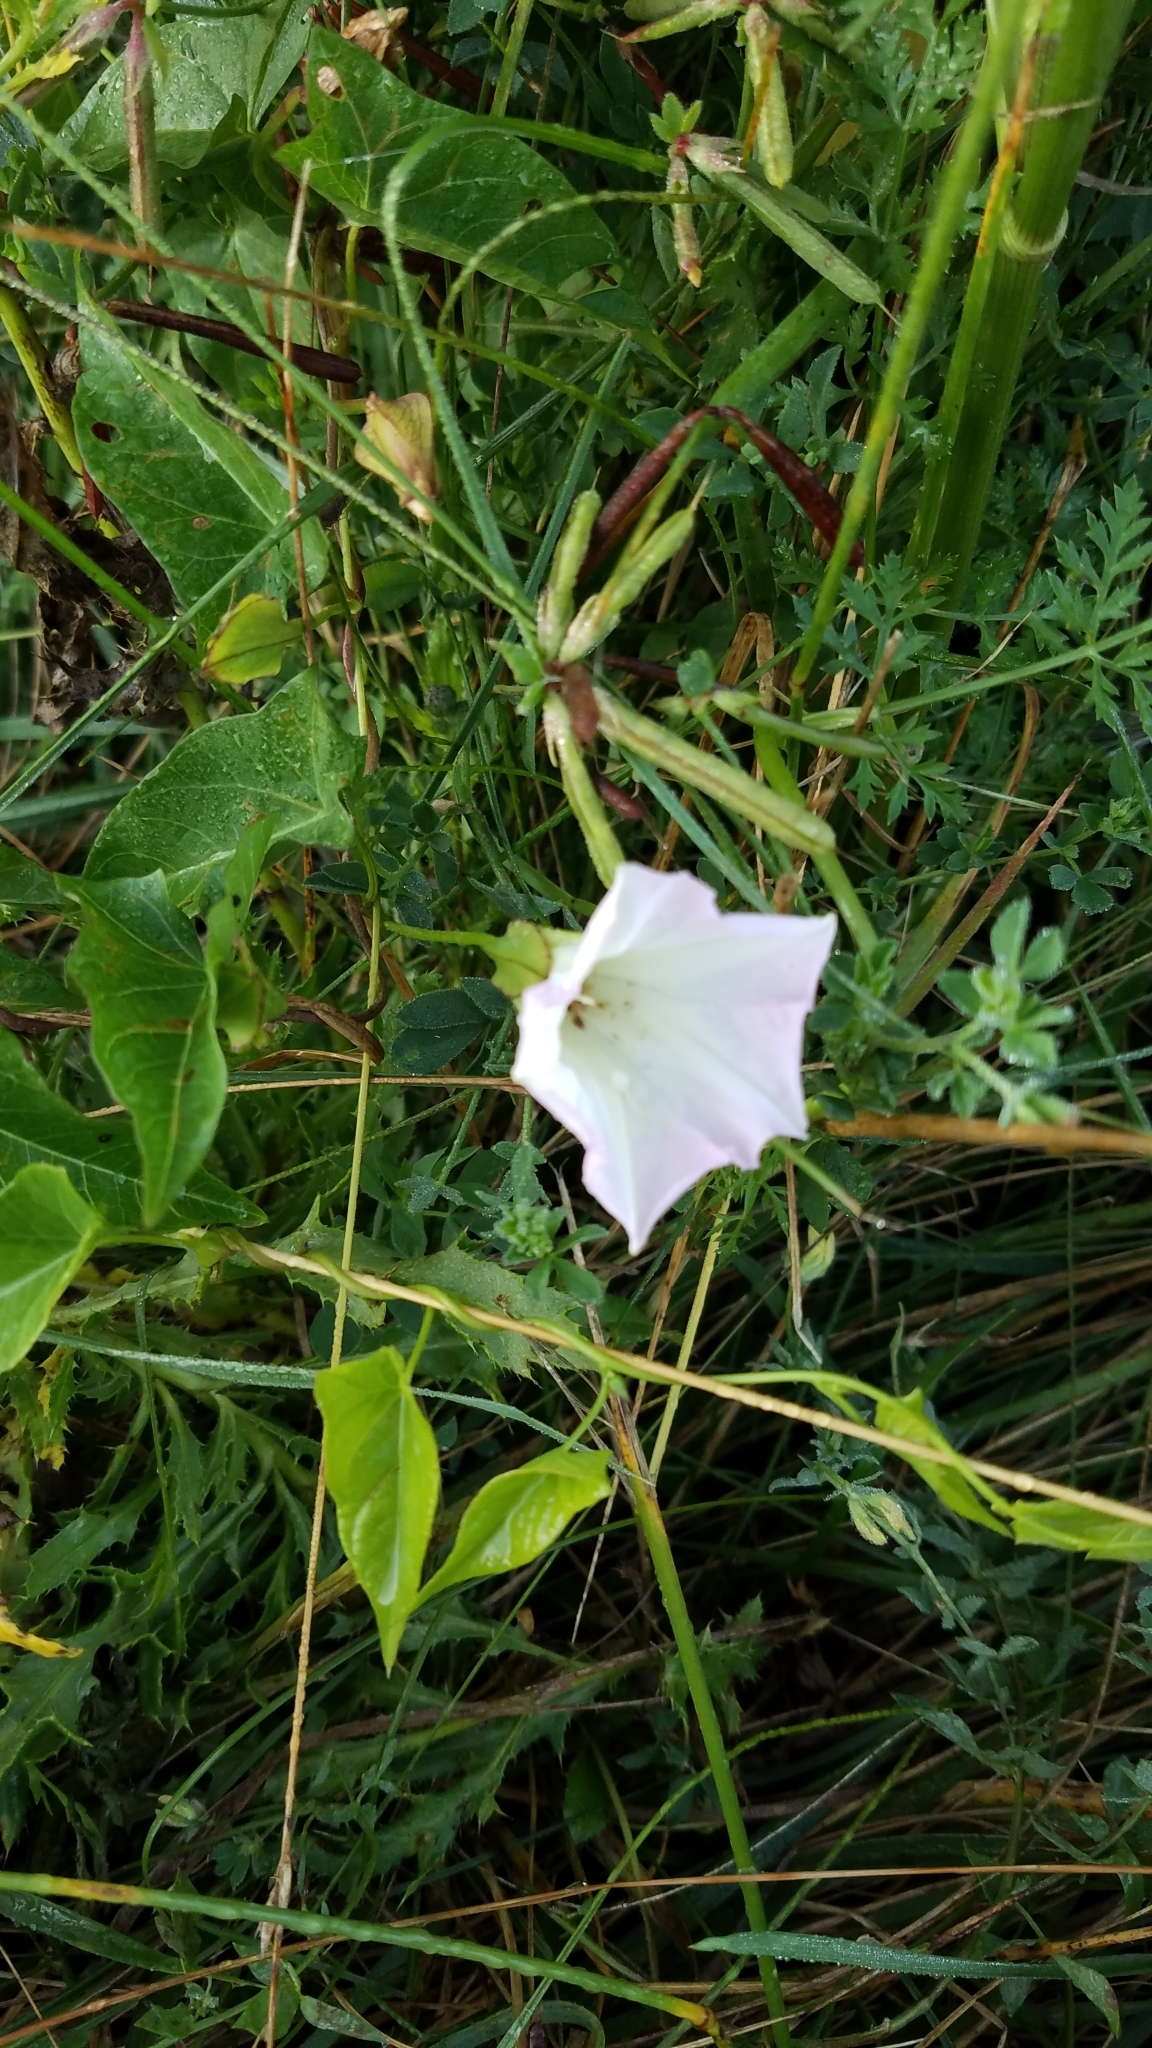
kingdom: Plantae
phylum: Tracheophyta
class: Magnoliopsida
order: Solanales
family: Convolvulaceae
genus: Calystegia
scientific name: Calystegia sepium
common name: Hedge bindweed
